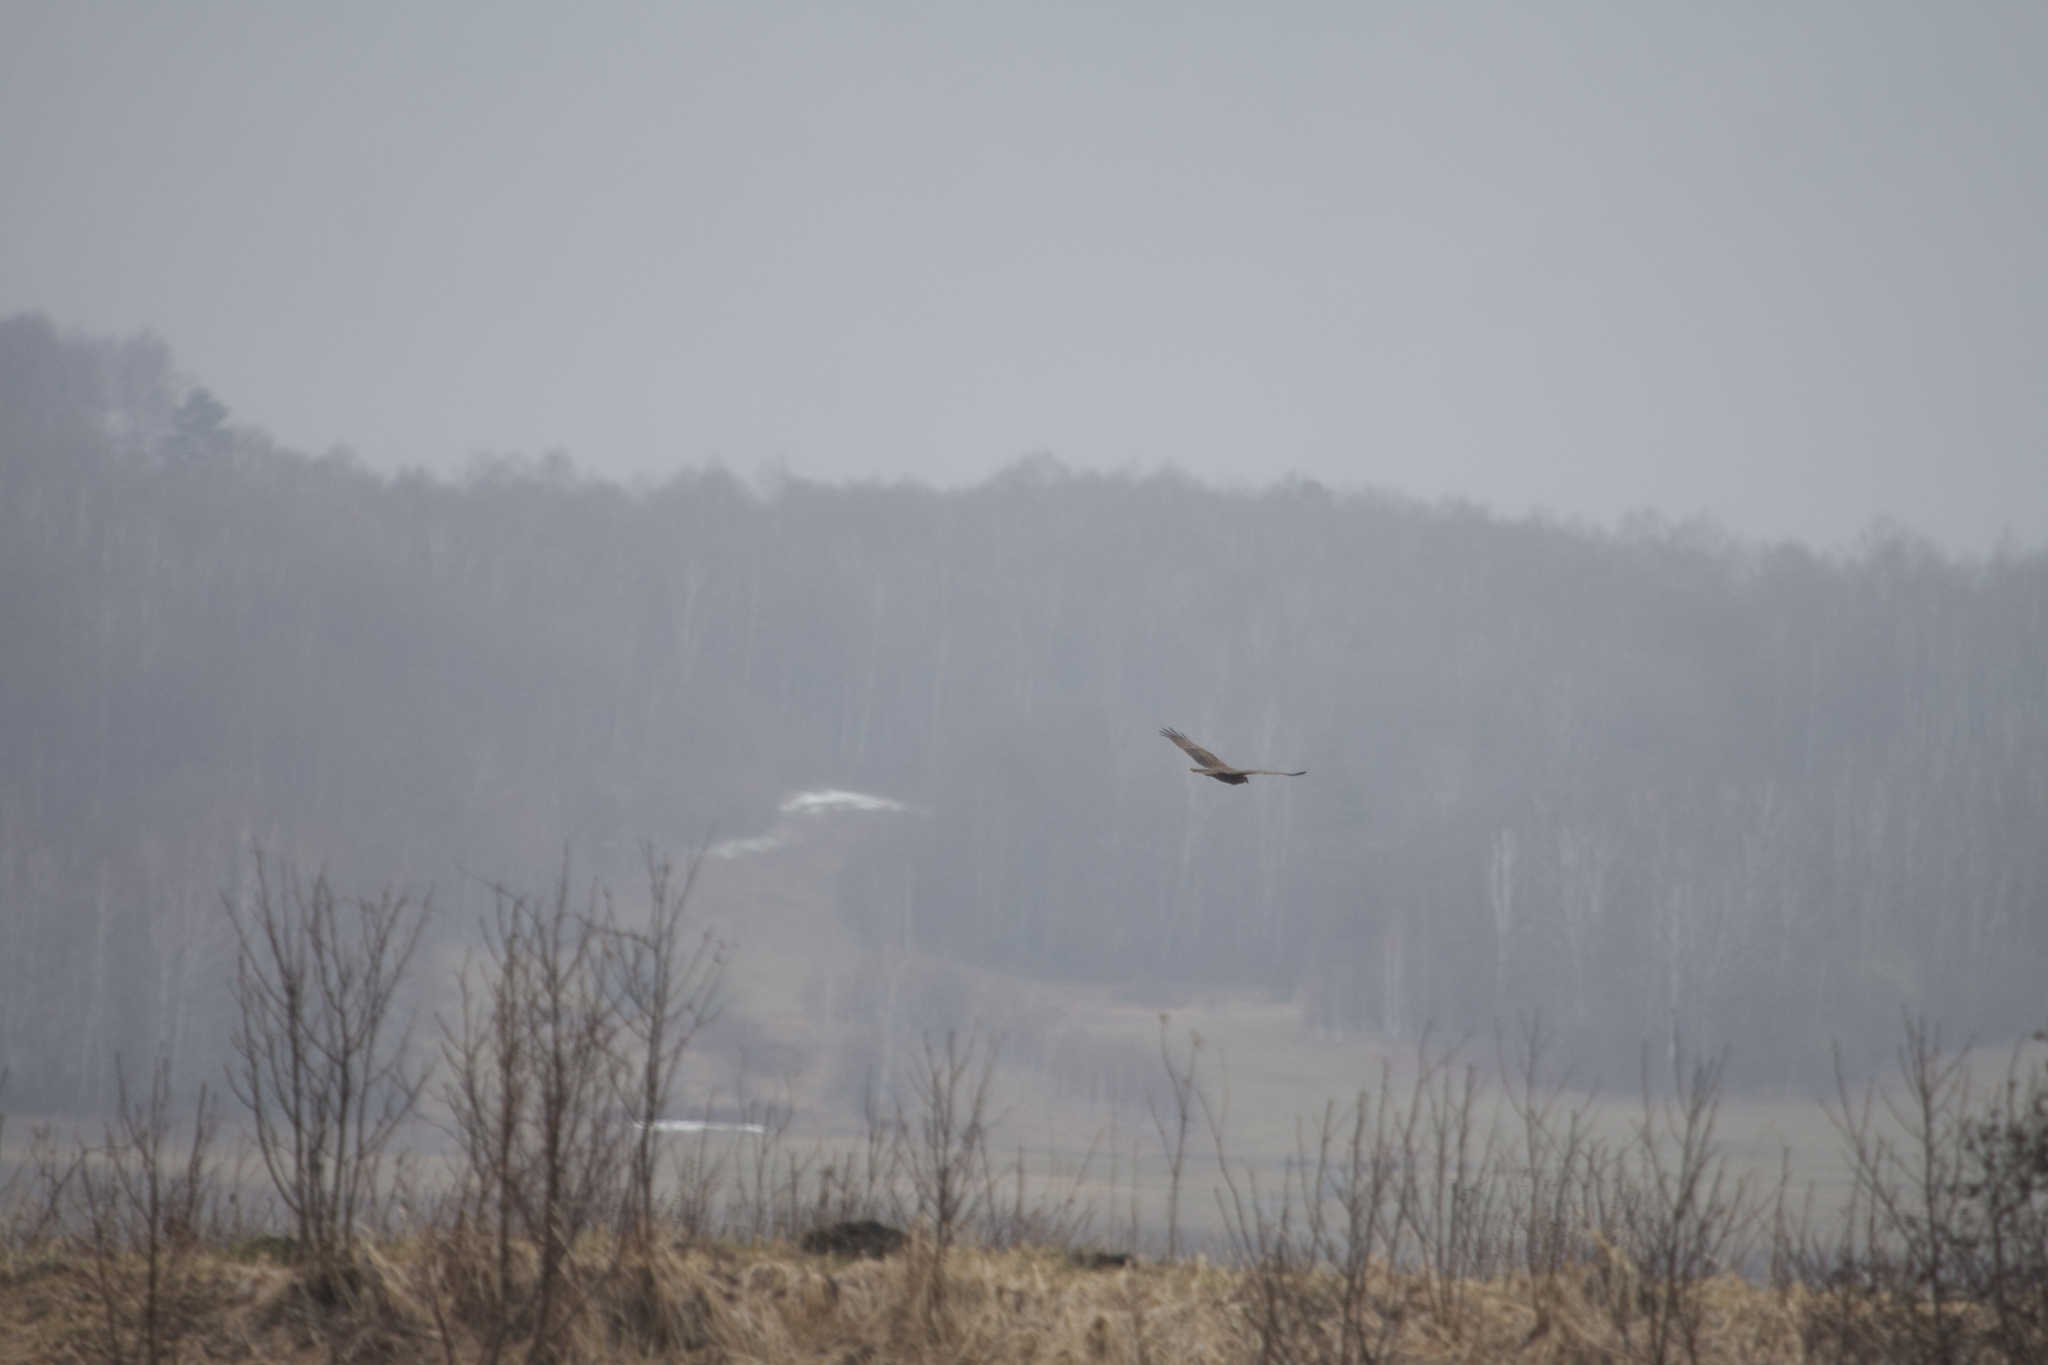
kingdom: Animalia
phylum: Chordata
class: Aves
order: Accipitriformes
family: Accipitridae
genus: Circus
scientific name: Circus aeruginosus
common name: Western marsh harrier
